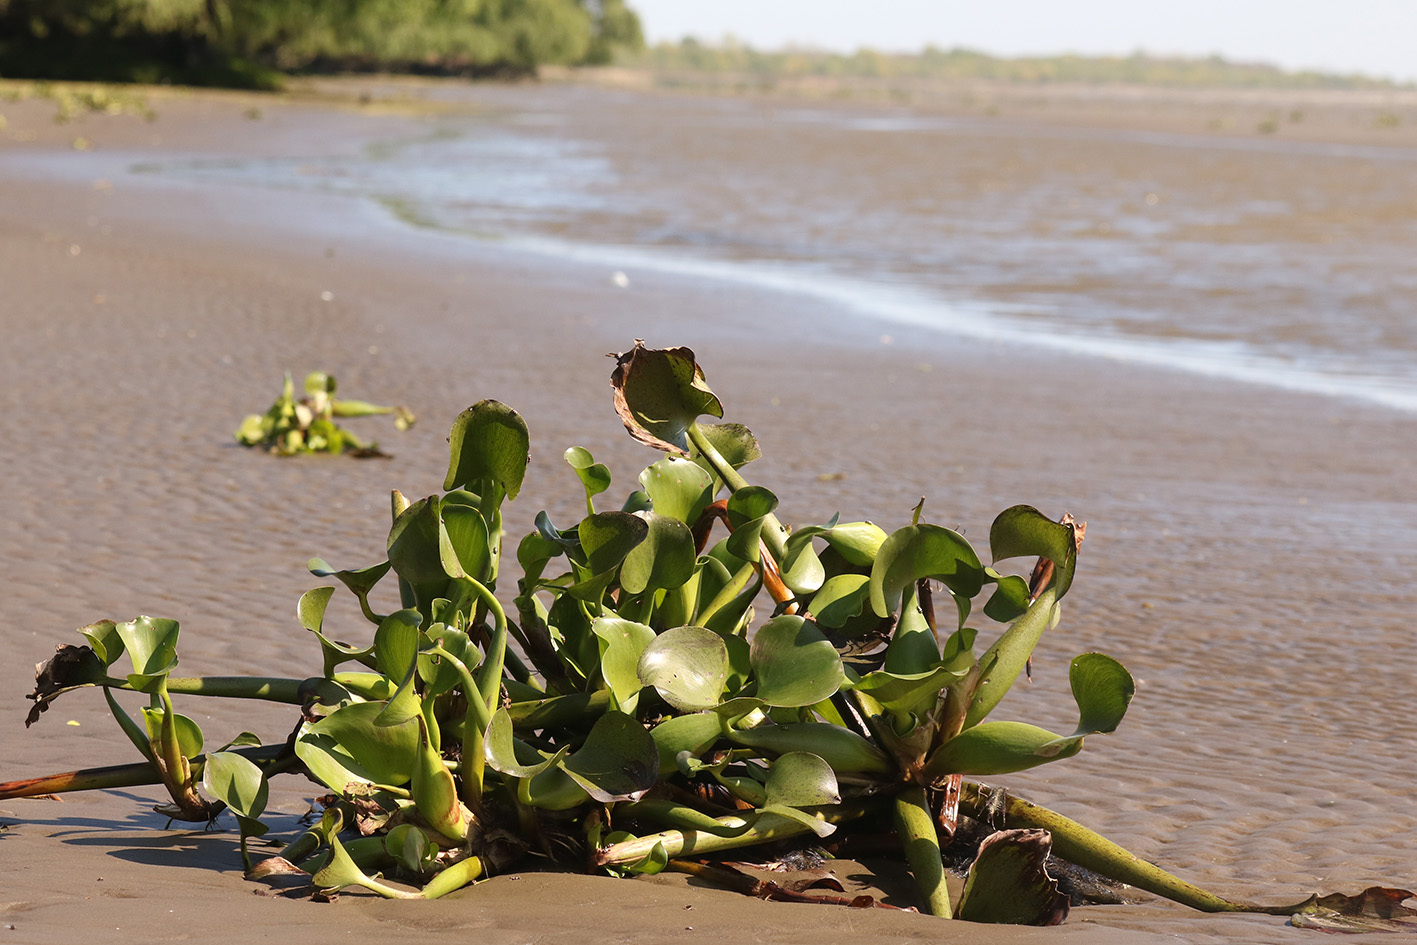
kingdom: Plantae
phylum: Tracheophyta
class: Liliopsida
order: Commelinales
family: Pontederiaceae
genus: Pontederia
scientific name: Pontederia crassipes
